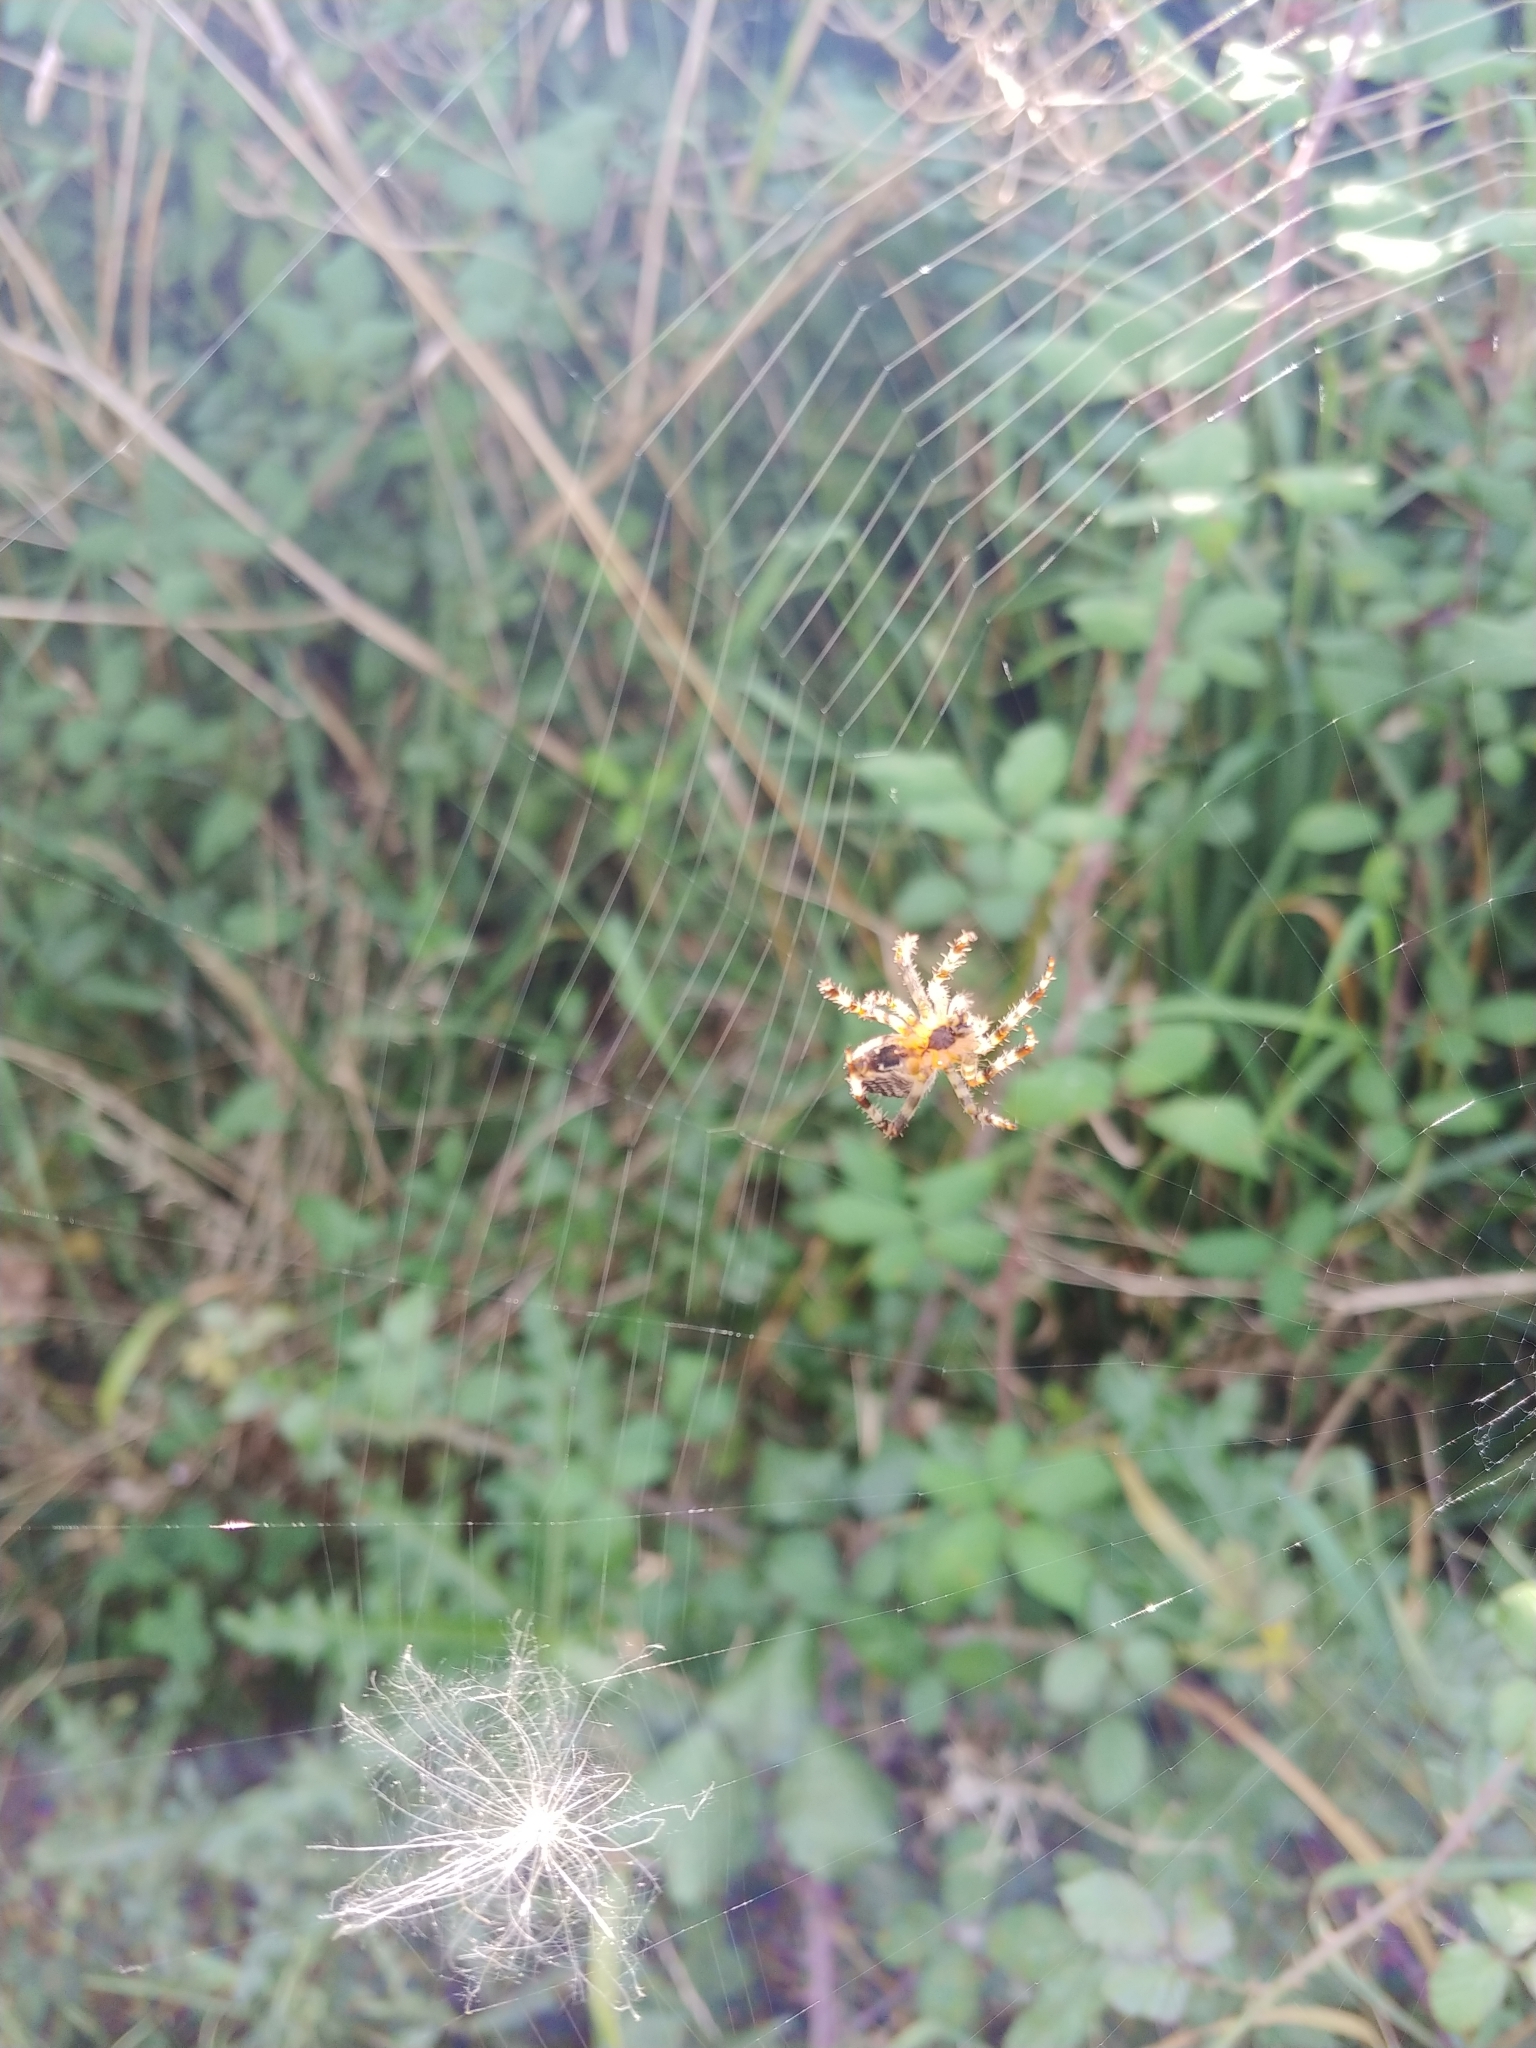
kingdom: Animalia
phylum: Arthropoda
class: Arachnida
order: Araneae
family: Araneidae
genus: Araneus
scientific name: Araneus diadematus
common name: Cross orbweaver
